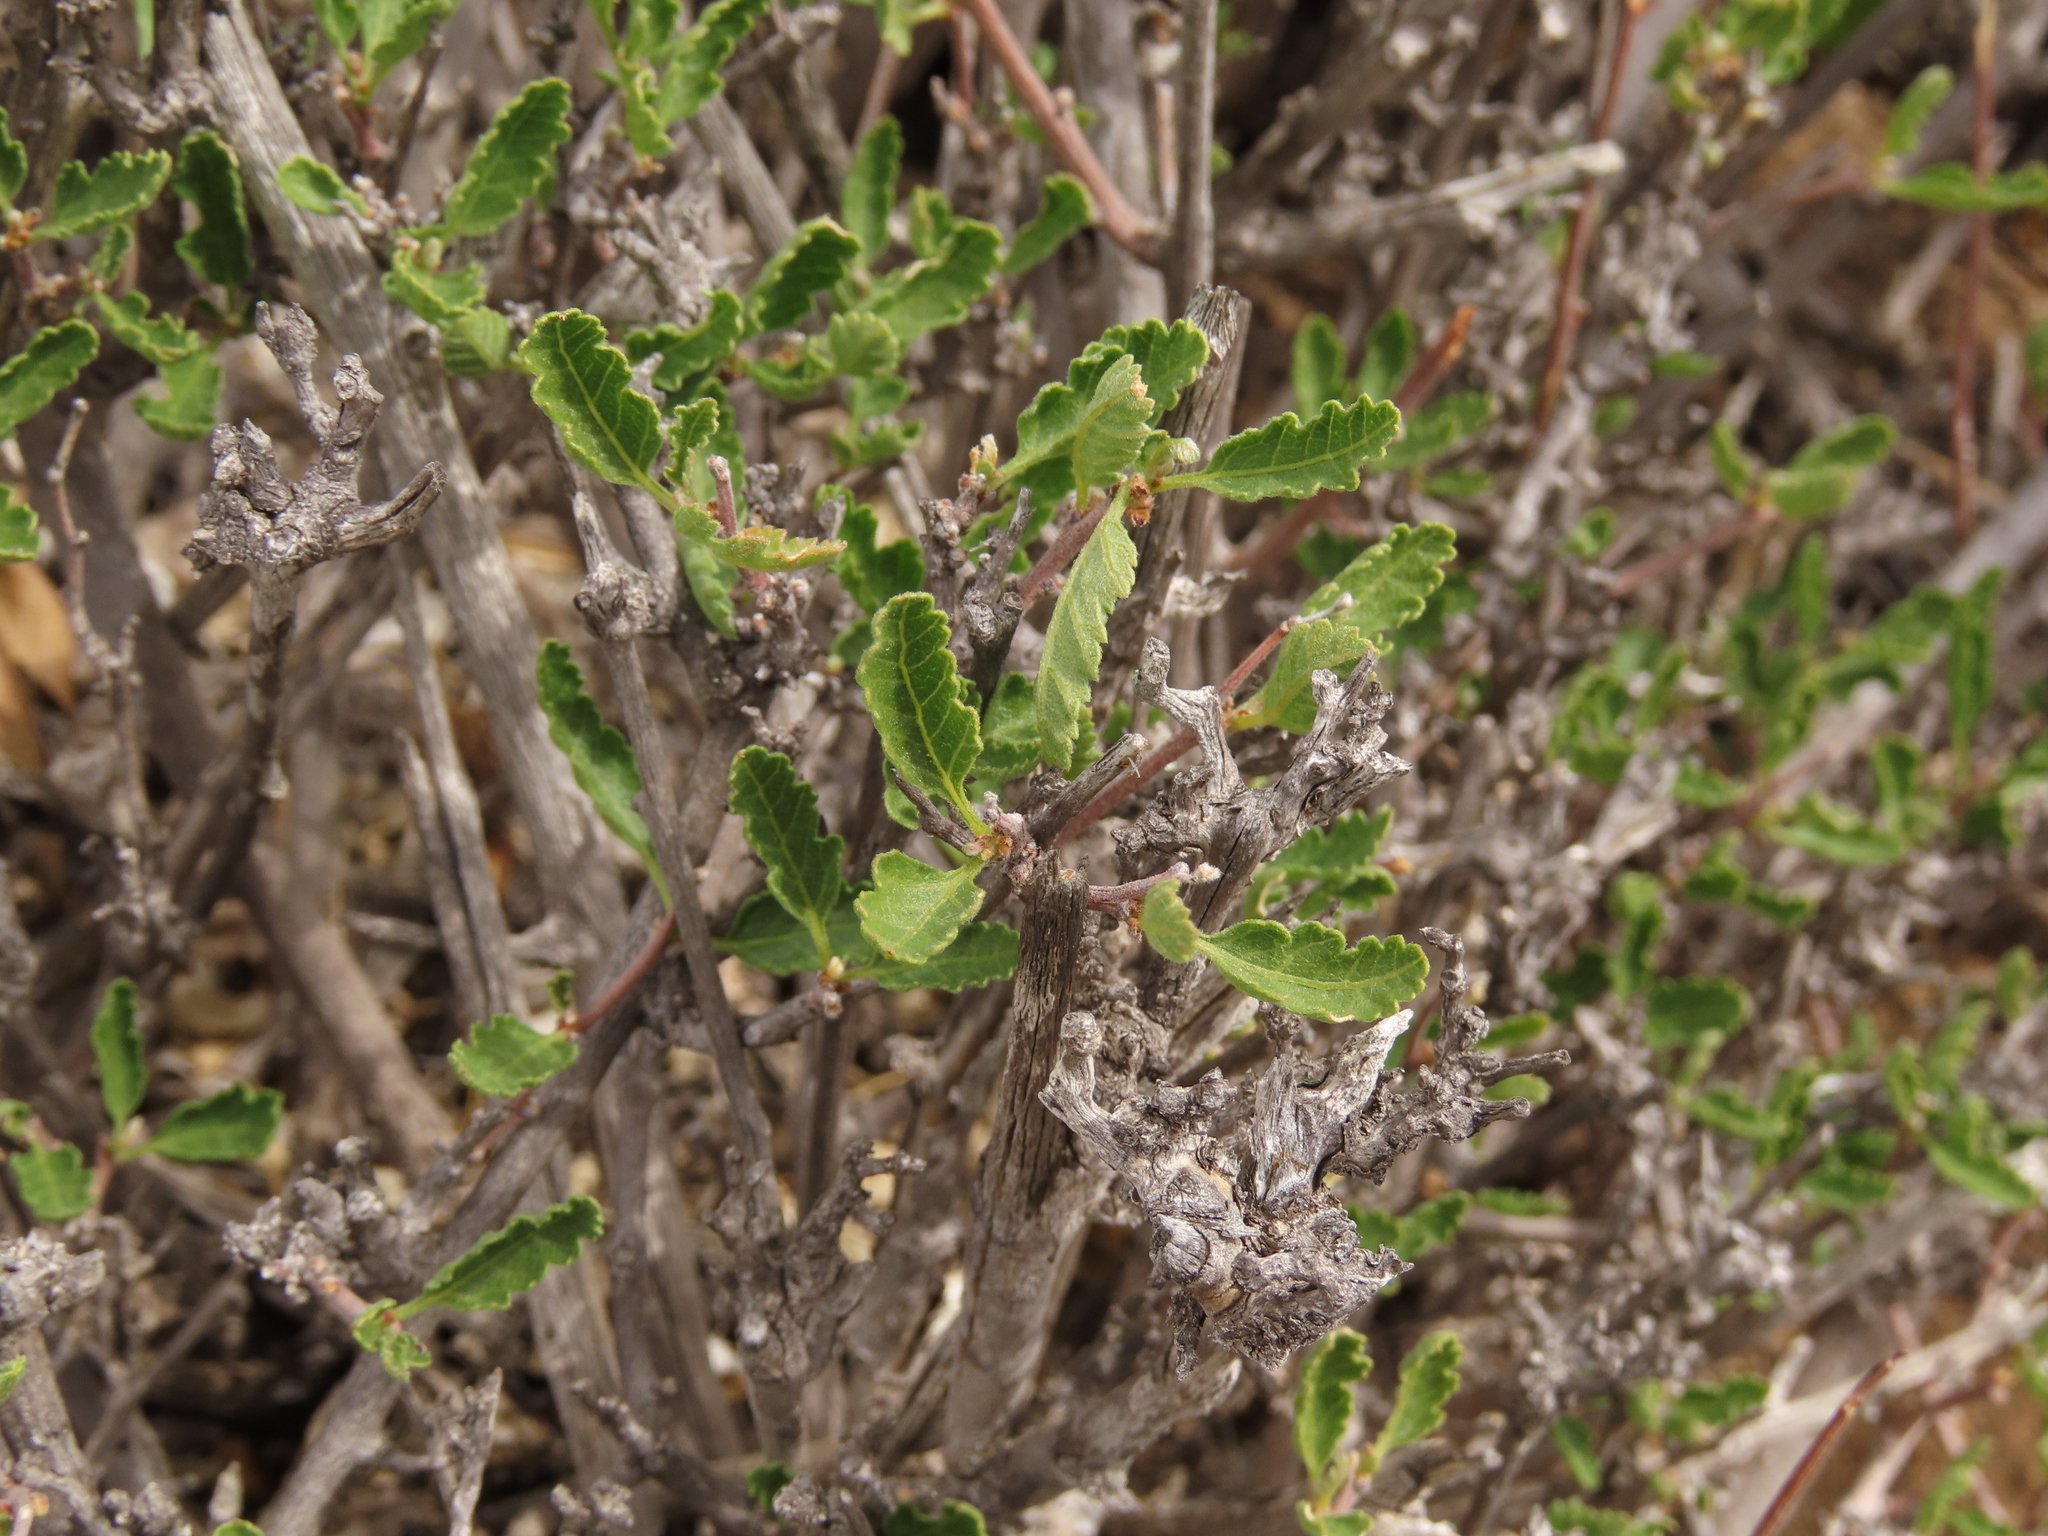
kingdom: Plantae
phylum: Tracheophyta
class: Magnoliopsida
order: Sapindales
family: Sapindaceae
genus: Bridgesia
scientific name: Bridgesia incisifolia
